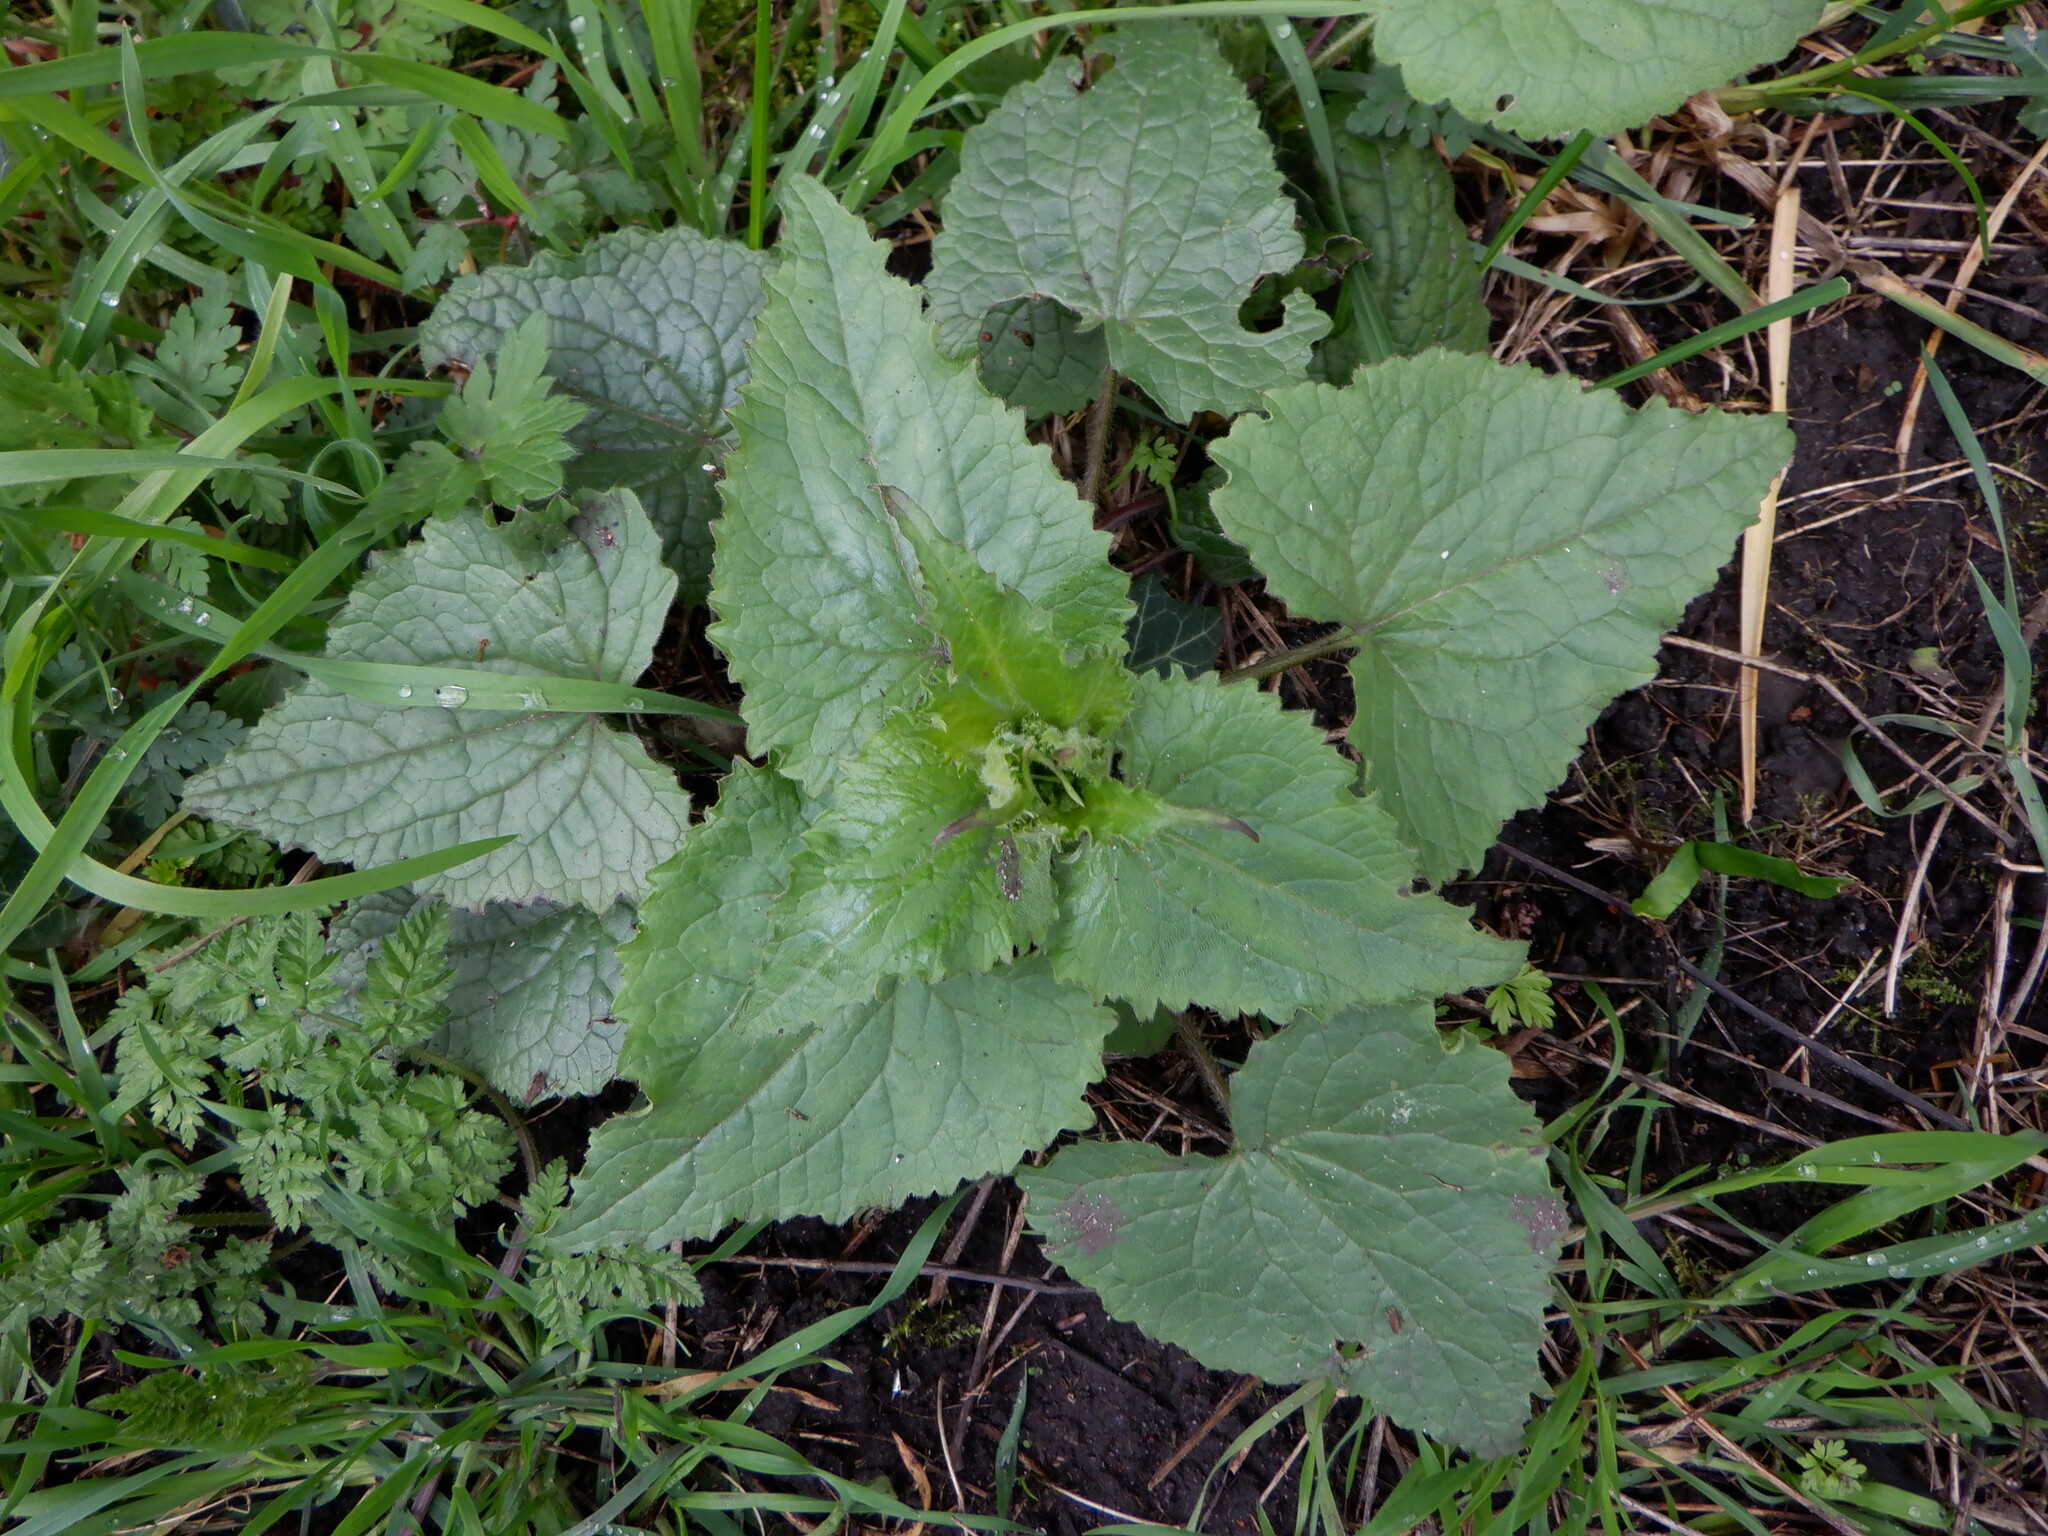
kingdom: Plantae
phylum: Tracheophyta
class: Magnoliopsida
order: Brassicales
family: Brassicaceae
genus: Lunaria
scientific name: Lunaria annua
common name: Honesty
